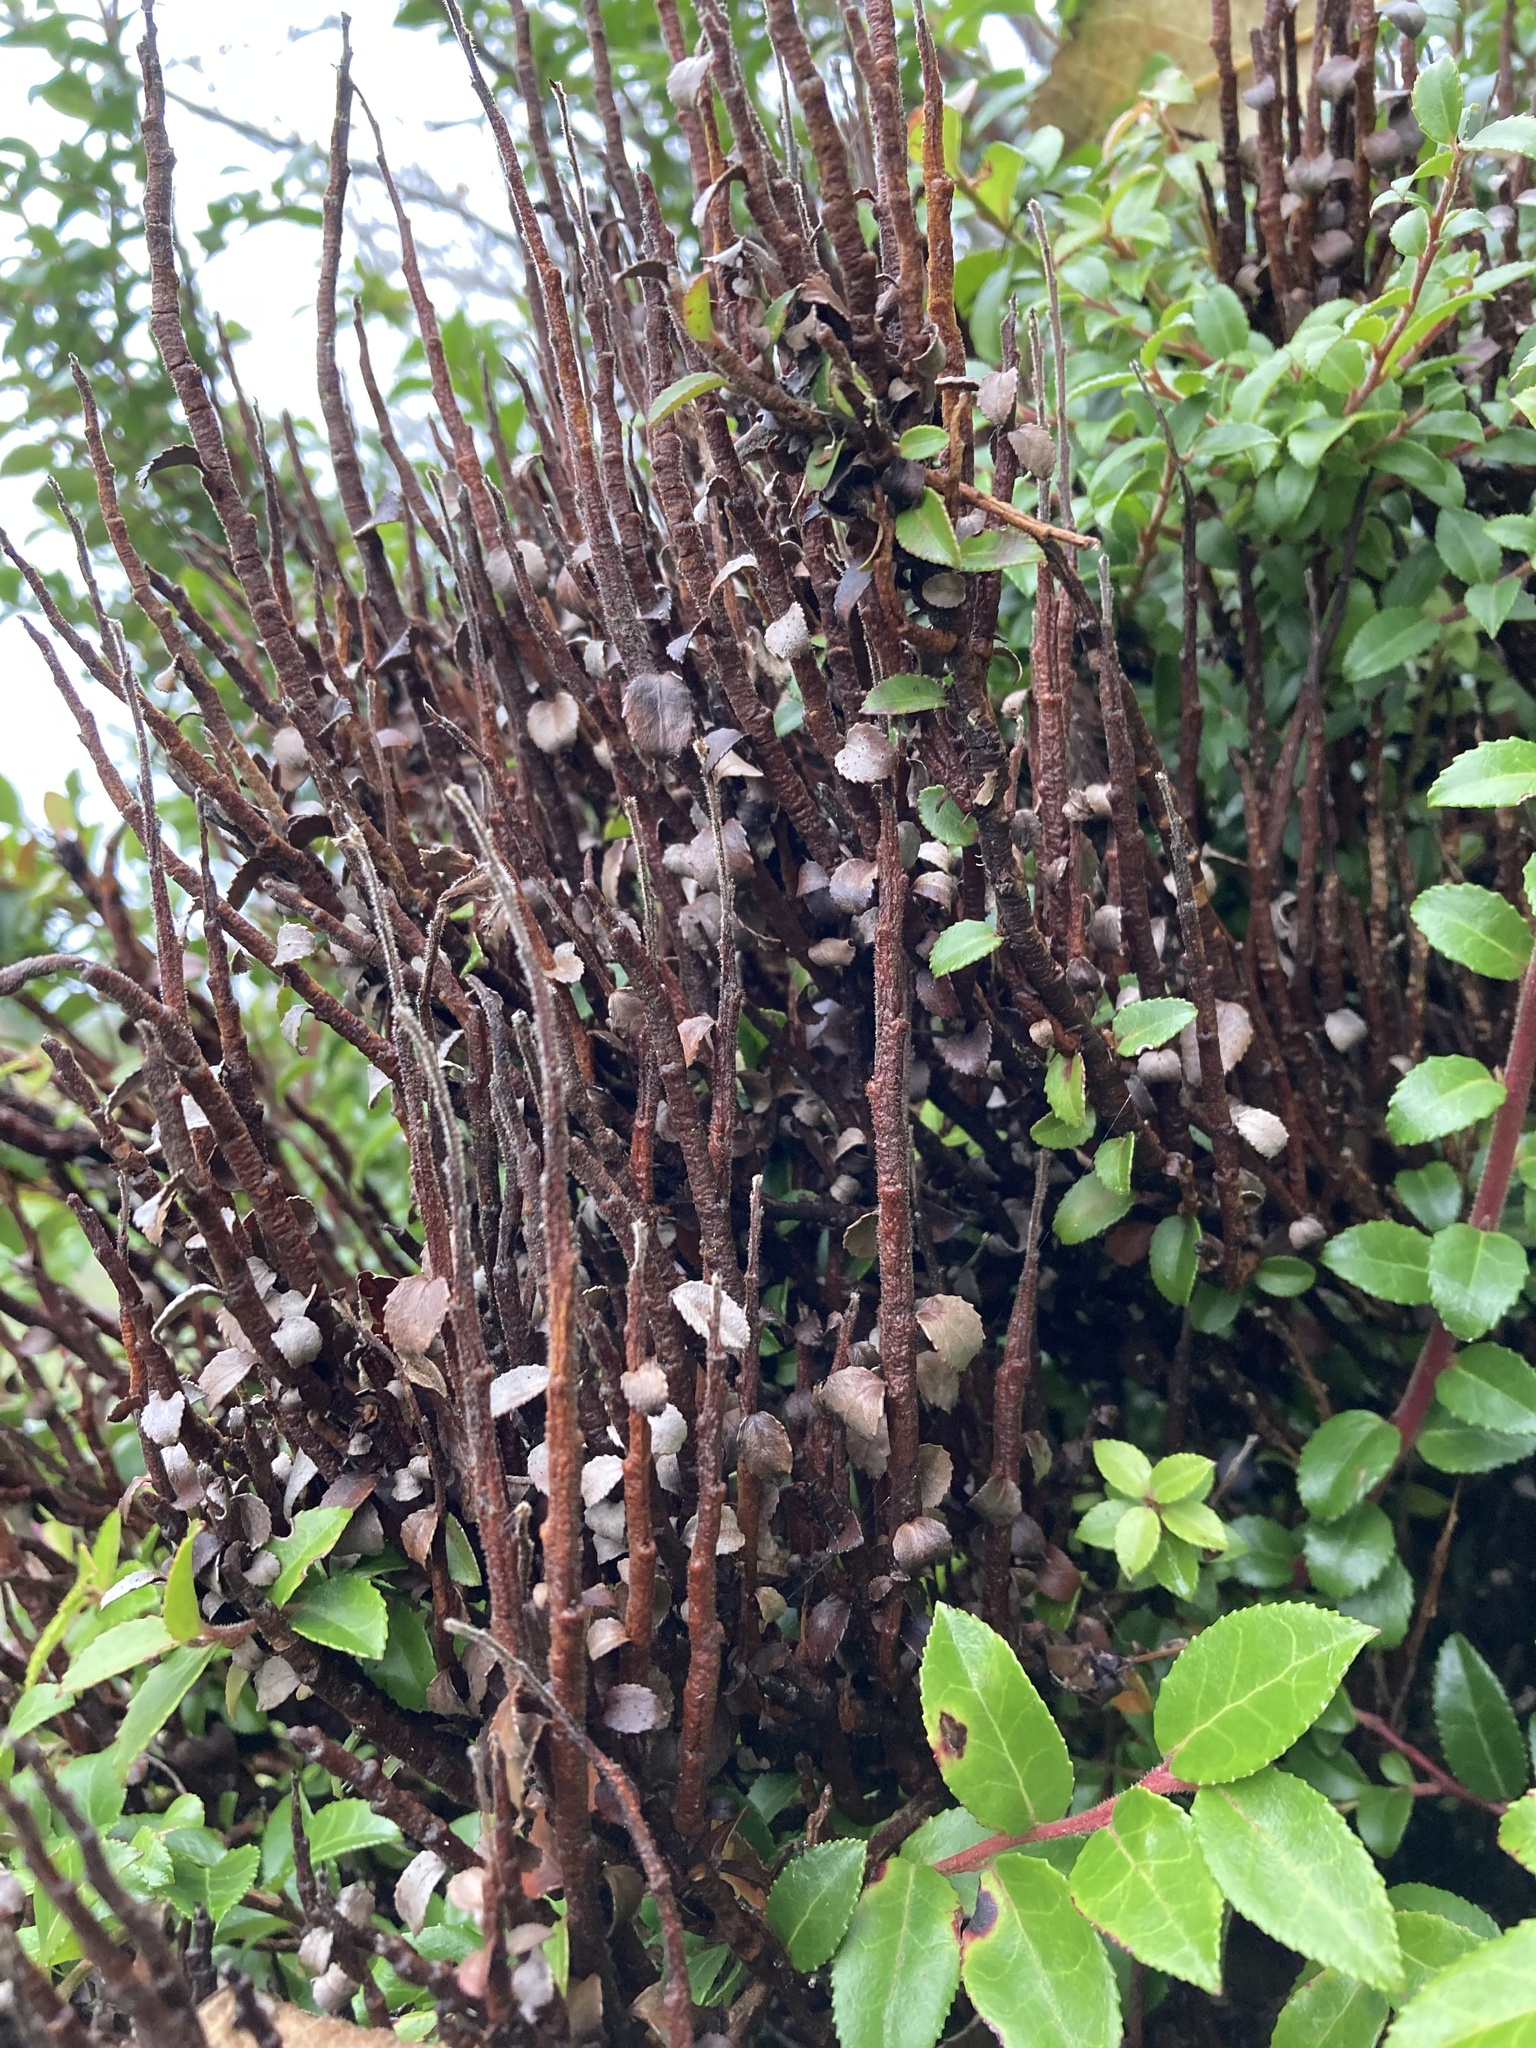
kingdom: Fungi
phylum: Basidiomycota
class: Pucciniomycetes
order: Pucciniales
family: Pucciniastraceae
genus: Calyptospora
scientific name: Calyptospora
